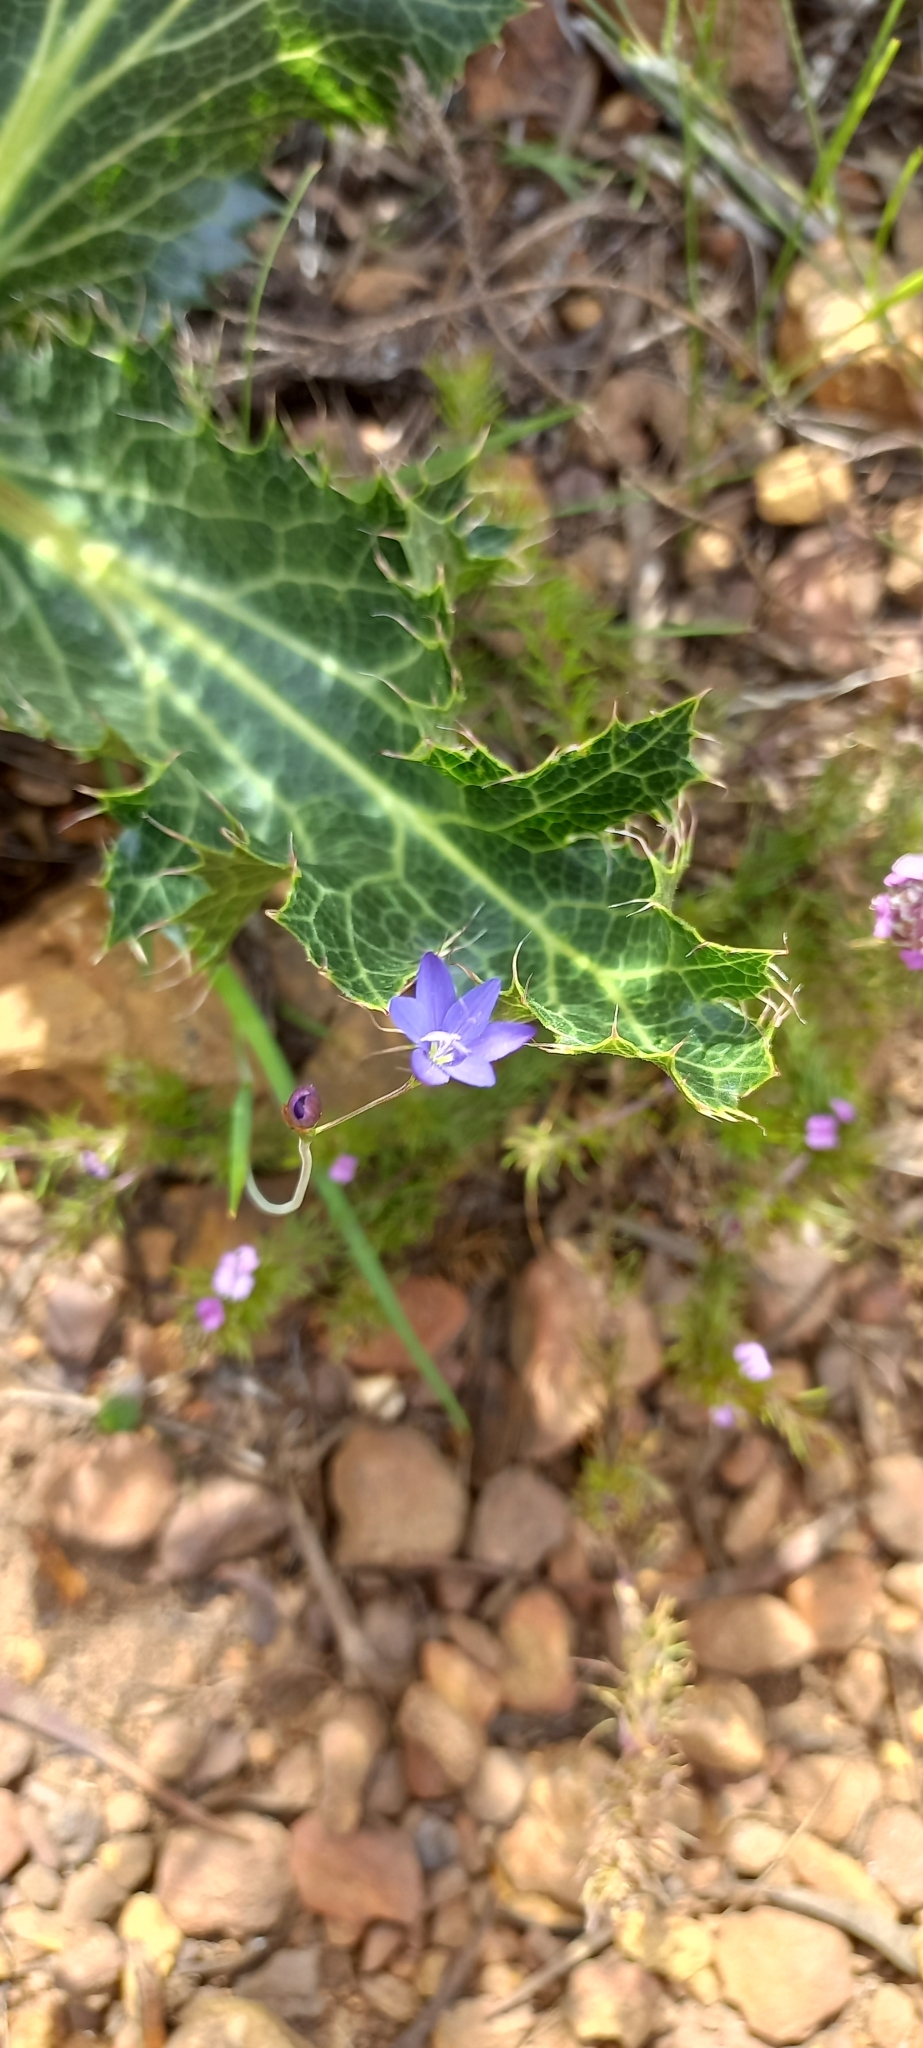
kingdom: Plantae
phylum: Tracheophyta
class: Liliopsida
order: Asparagales
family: Iridaceae
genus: Geissorhiza
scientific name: Geissorhiza aspera
